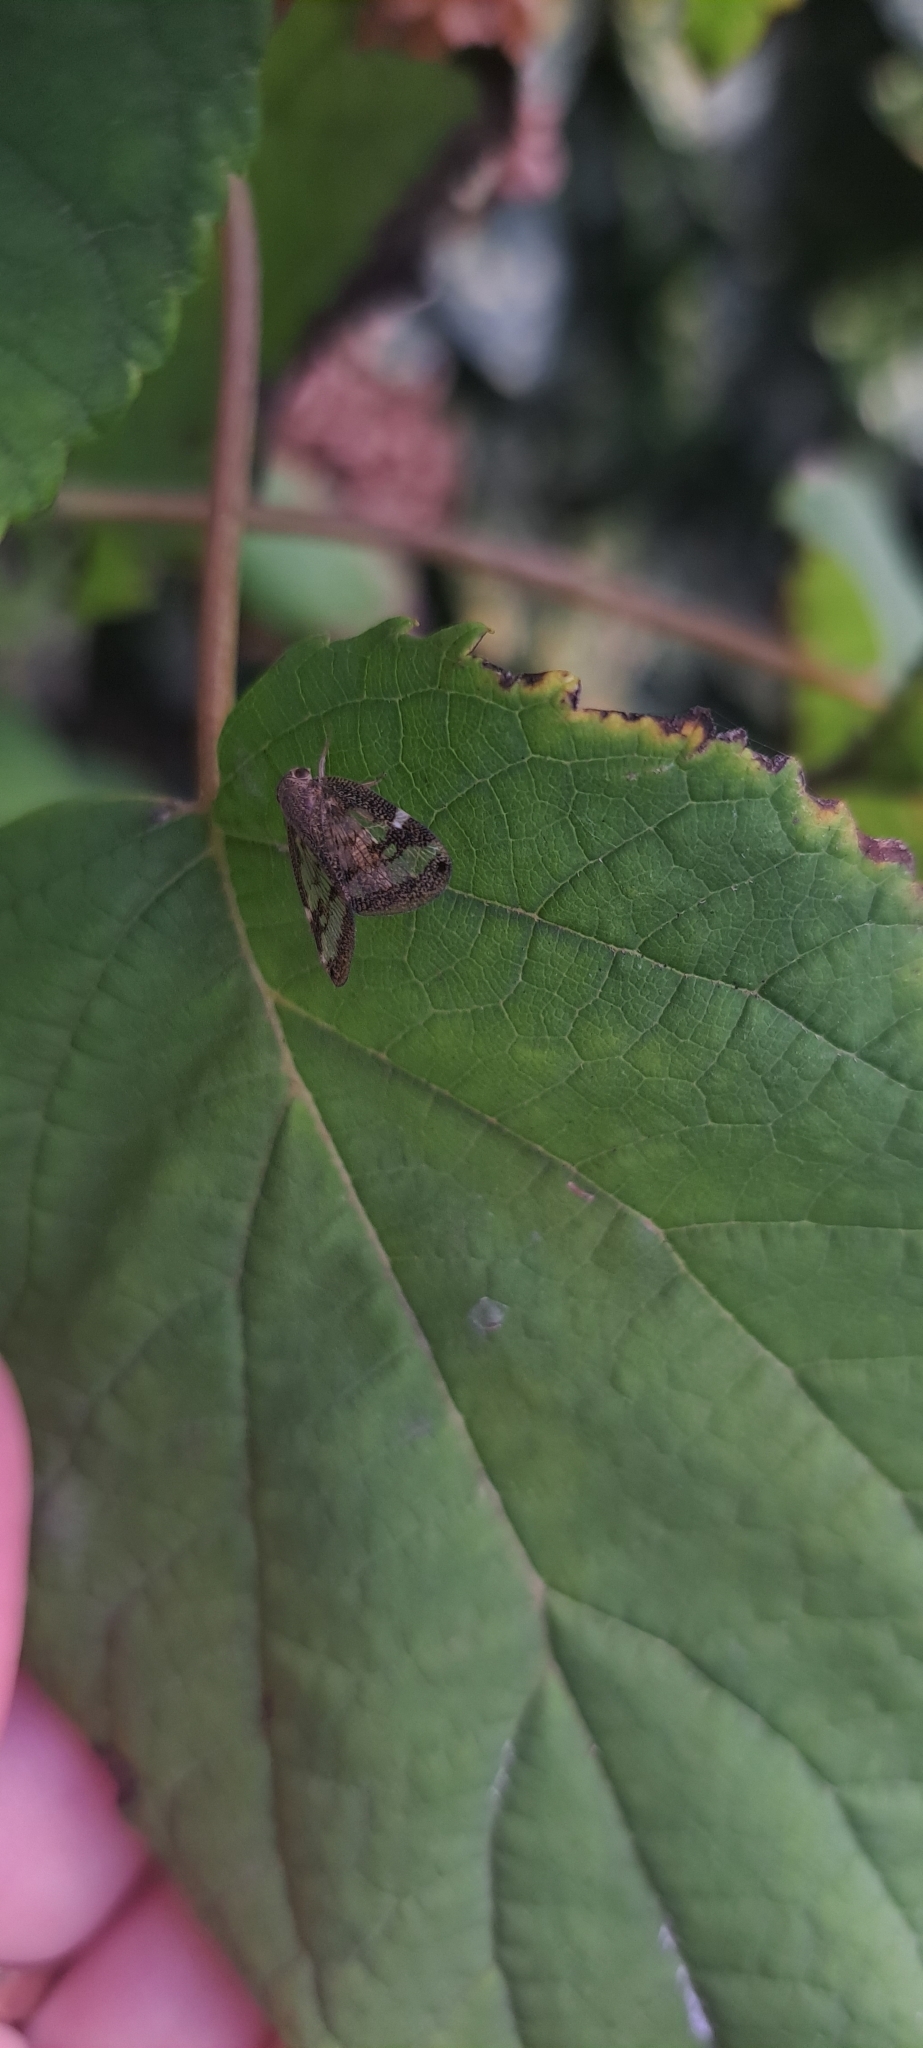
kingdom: Animalia
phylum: Arthropoda
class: Insecta
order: Hemiptera
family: Ricaniidae
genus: Scolypopa
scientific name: Scolypopa australis
